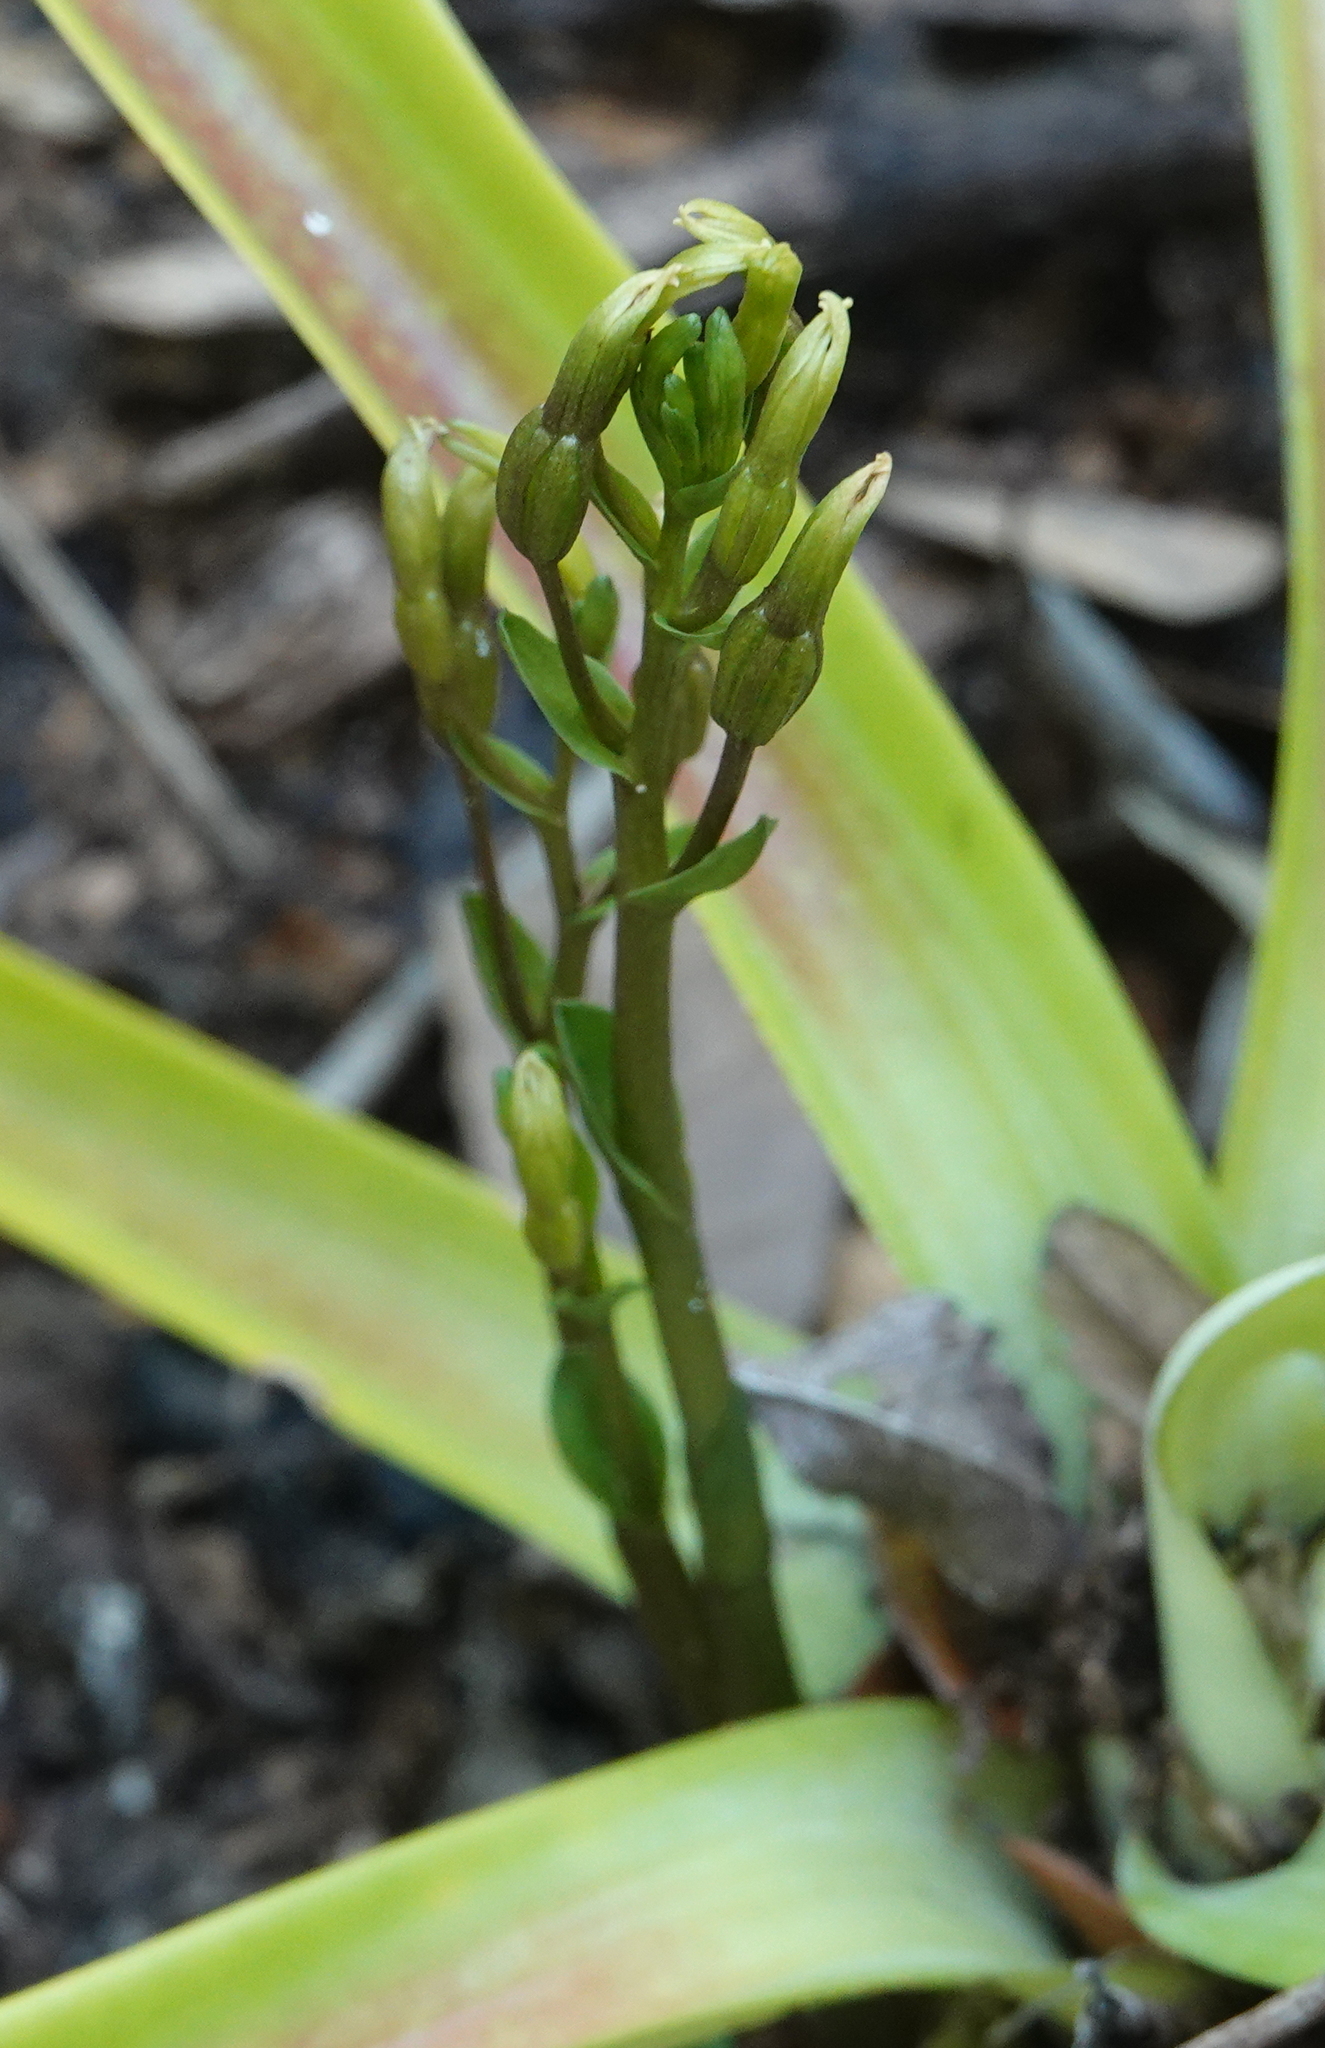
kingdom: Plantae
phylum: Tracheophyta
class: Liliopsida
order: Asparagales
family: Orchidaceae
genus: Triphora
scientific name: Triphora gentianoides
